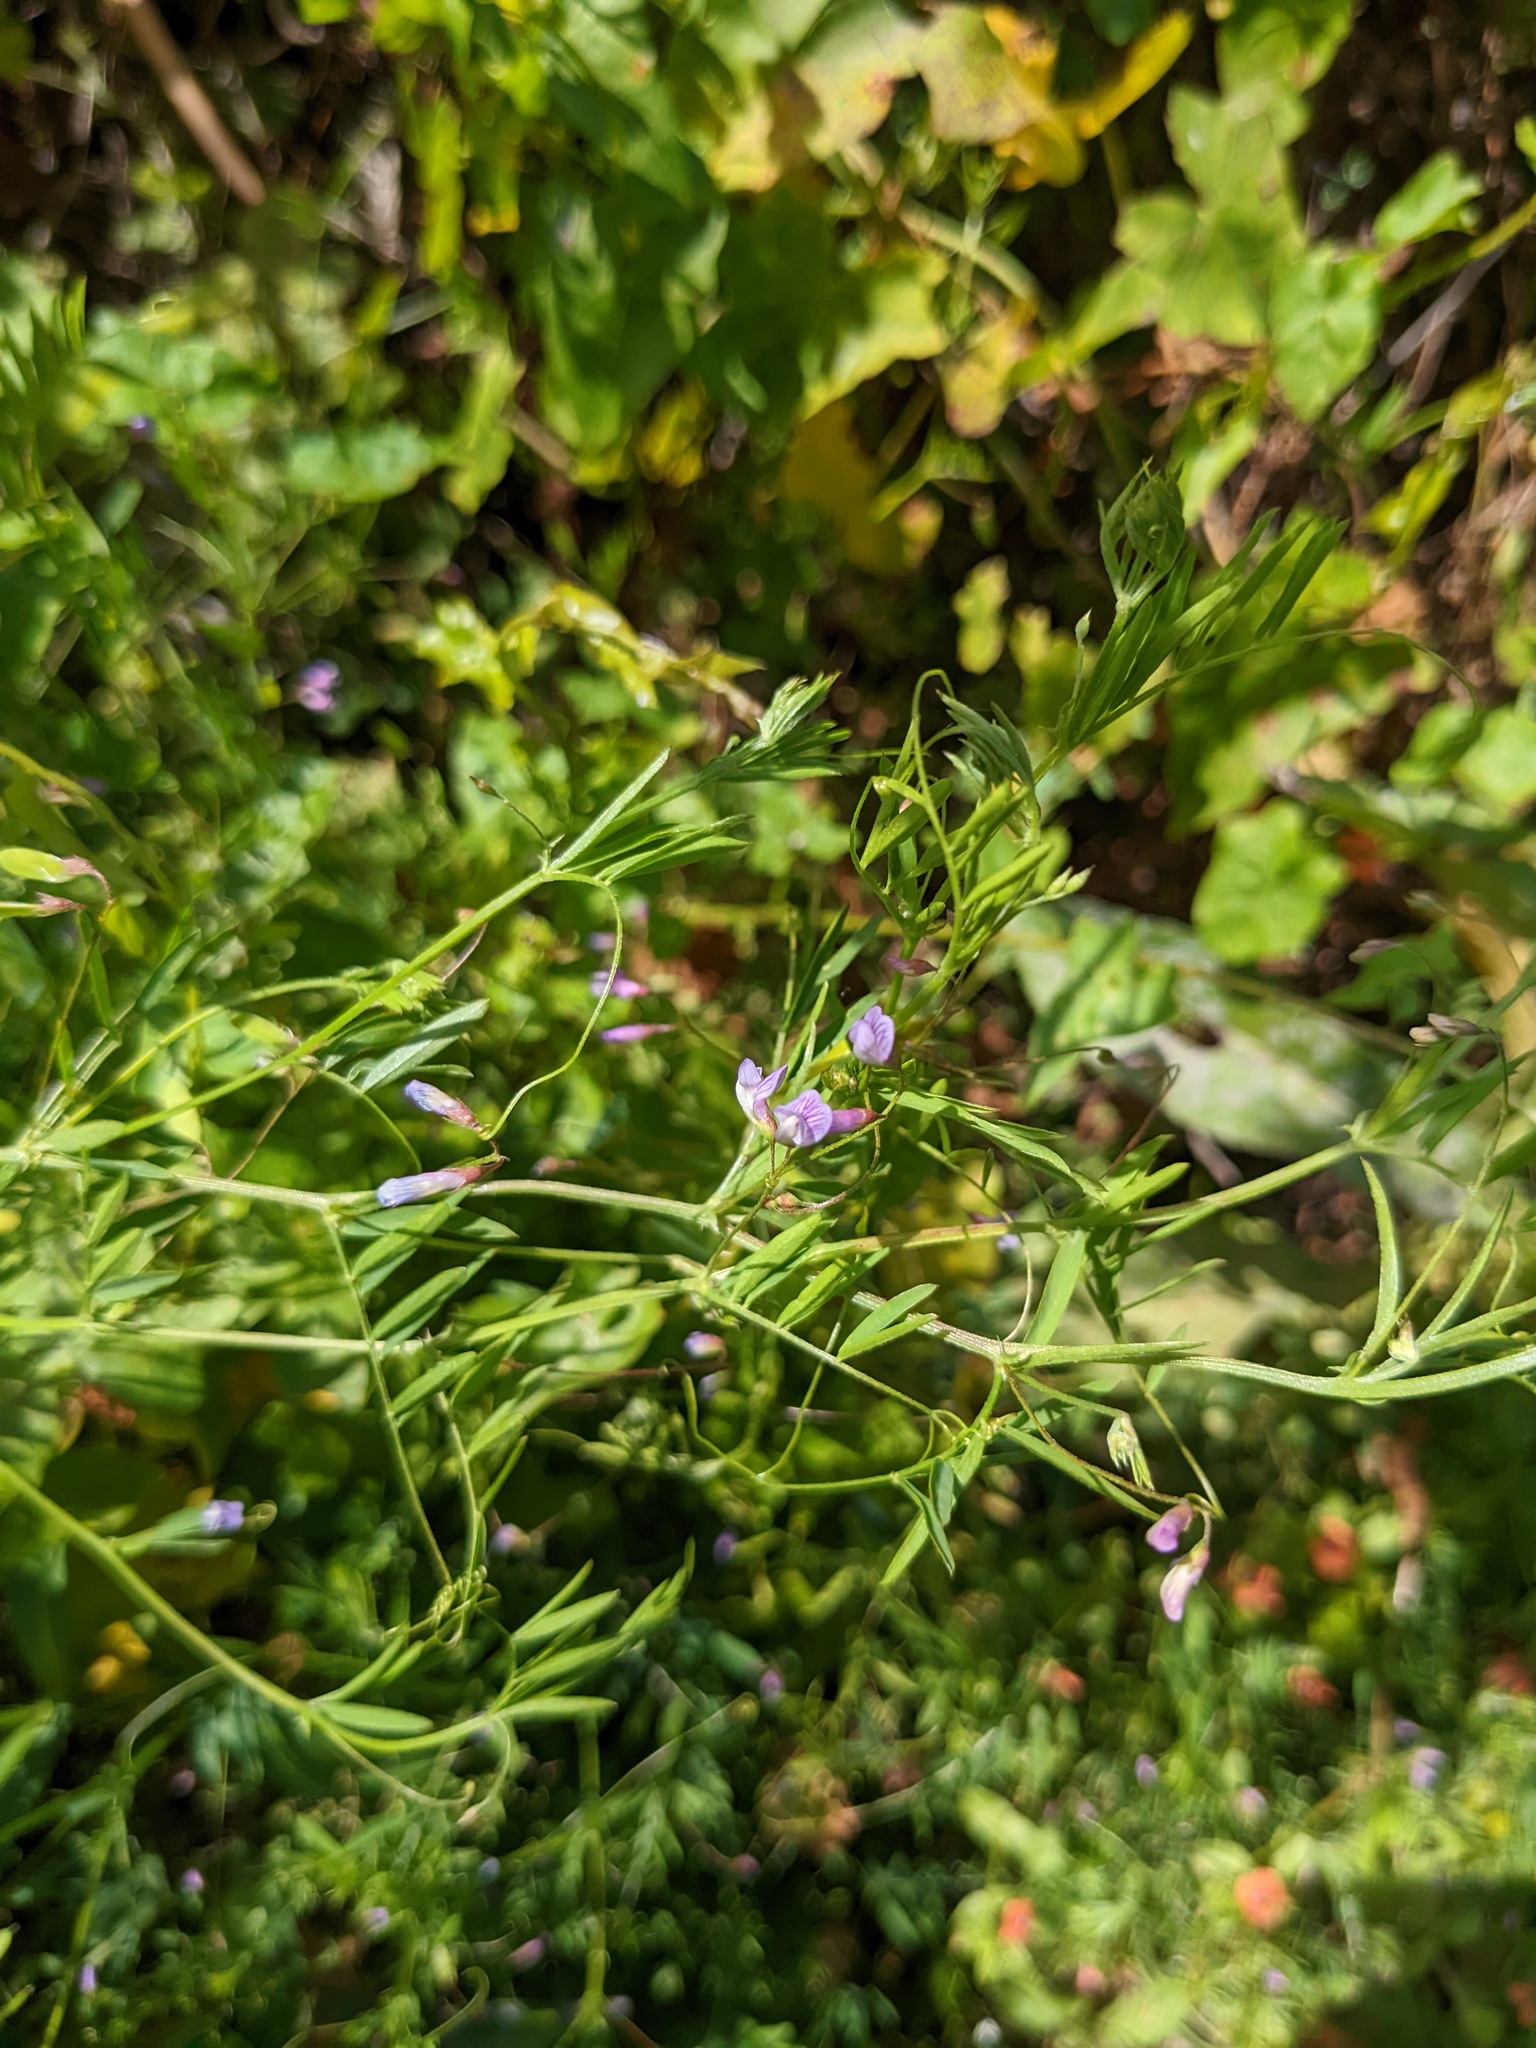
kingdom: Plantae
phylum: Tracheophyta
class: Magnoliopsida
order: Fabales
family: Fabaceae
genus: Vicia
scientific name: Vicia tetrasperma
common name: Smooth tare
